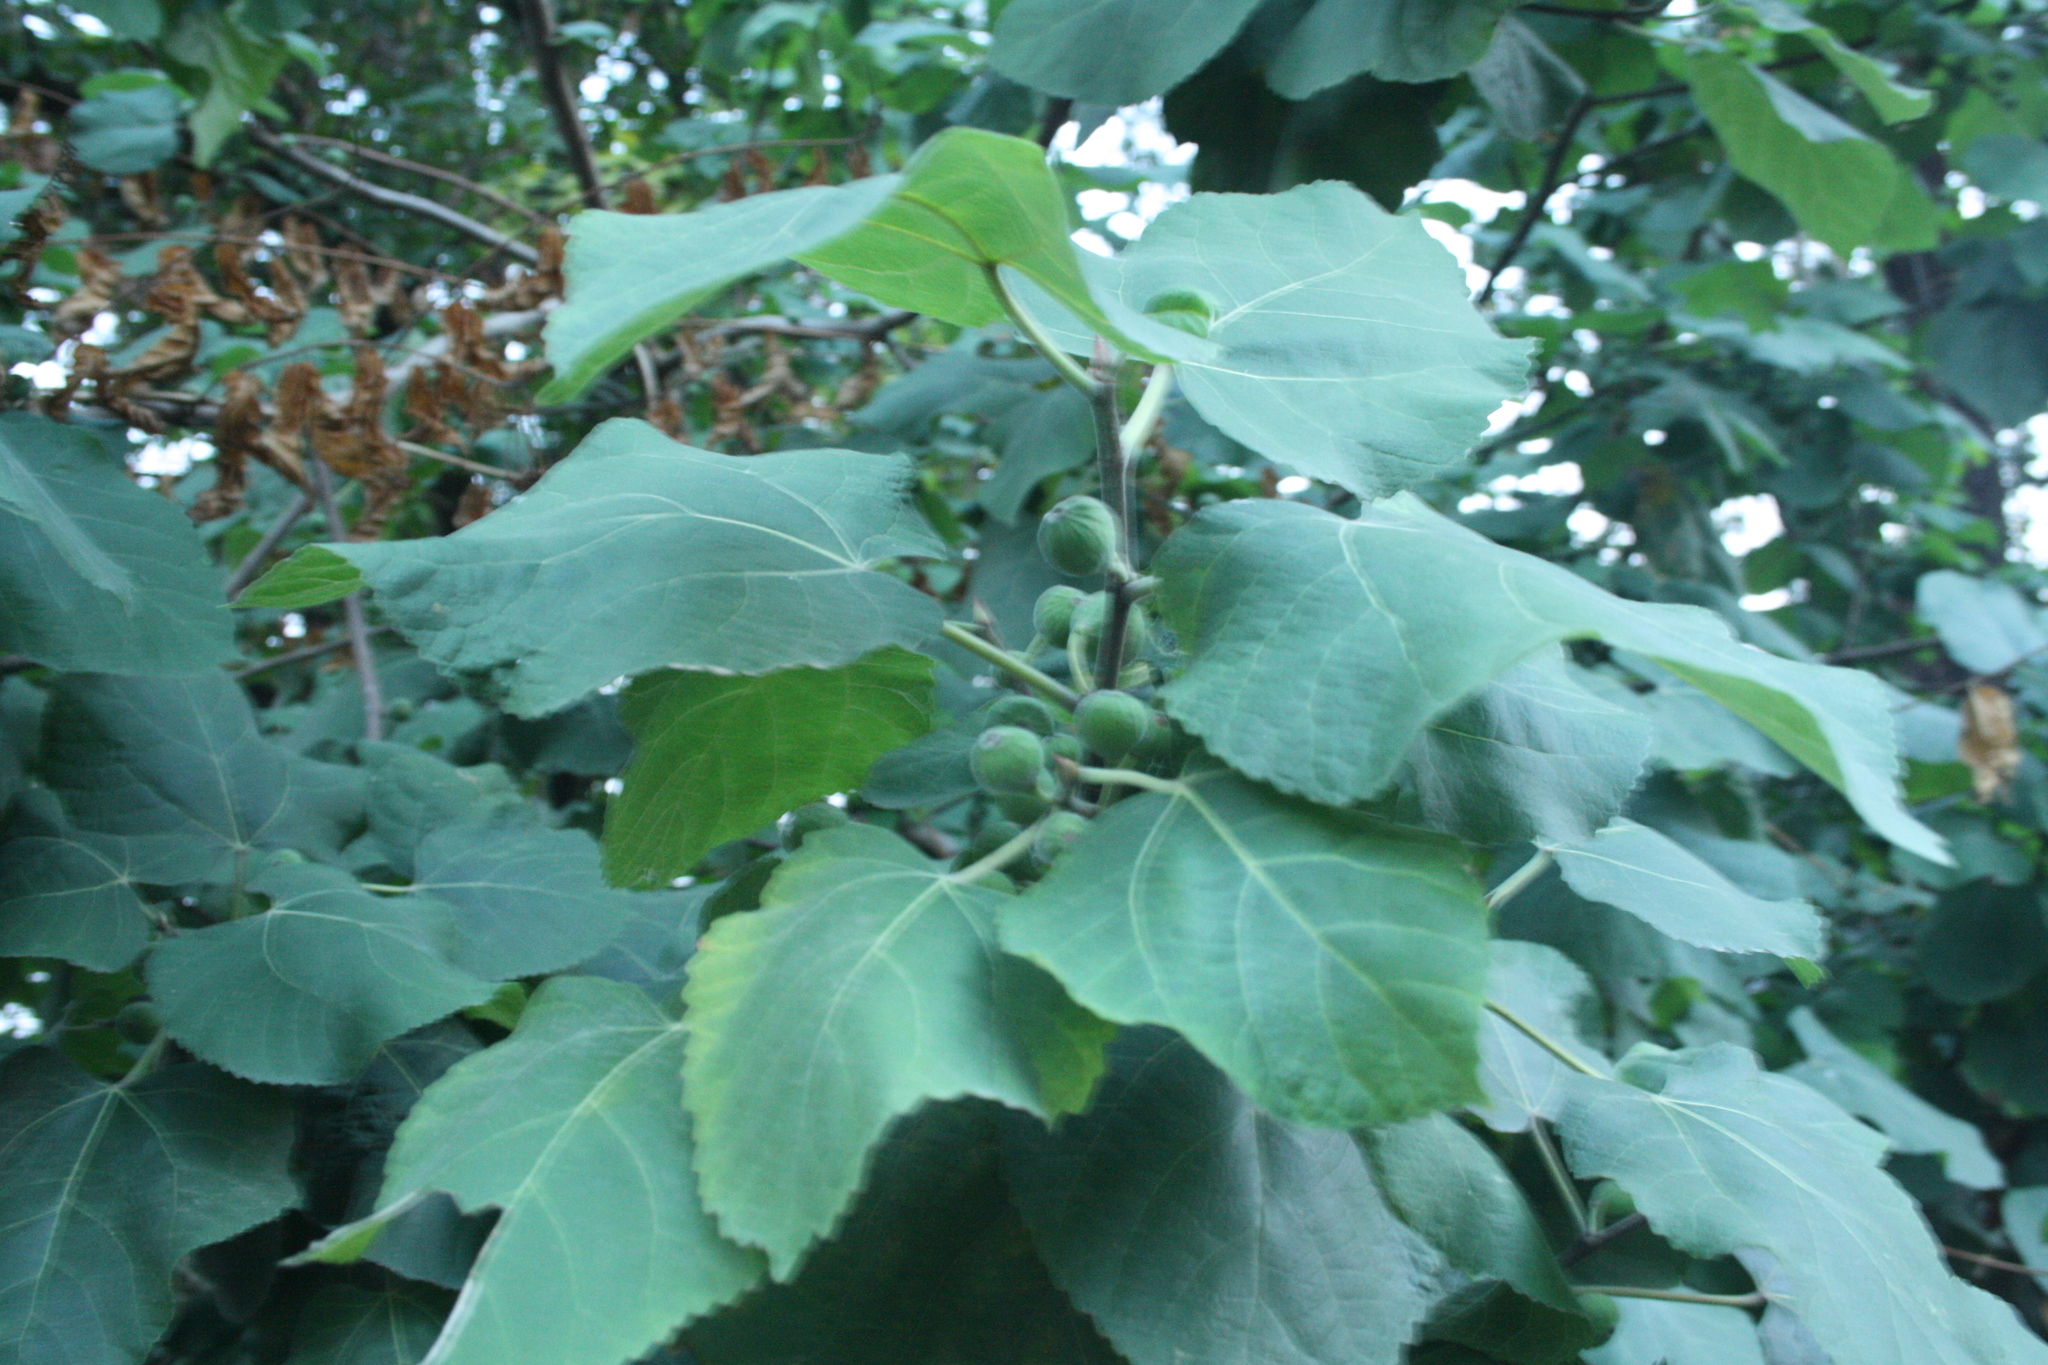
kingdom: Plantae
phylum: Tracheophyta
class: Magnoliopsida
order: Rosales
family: Moraceae
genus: Ficus
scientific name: Ficus palmata
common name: Punjab fig
